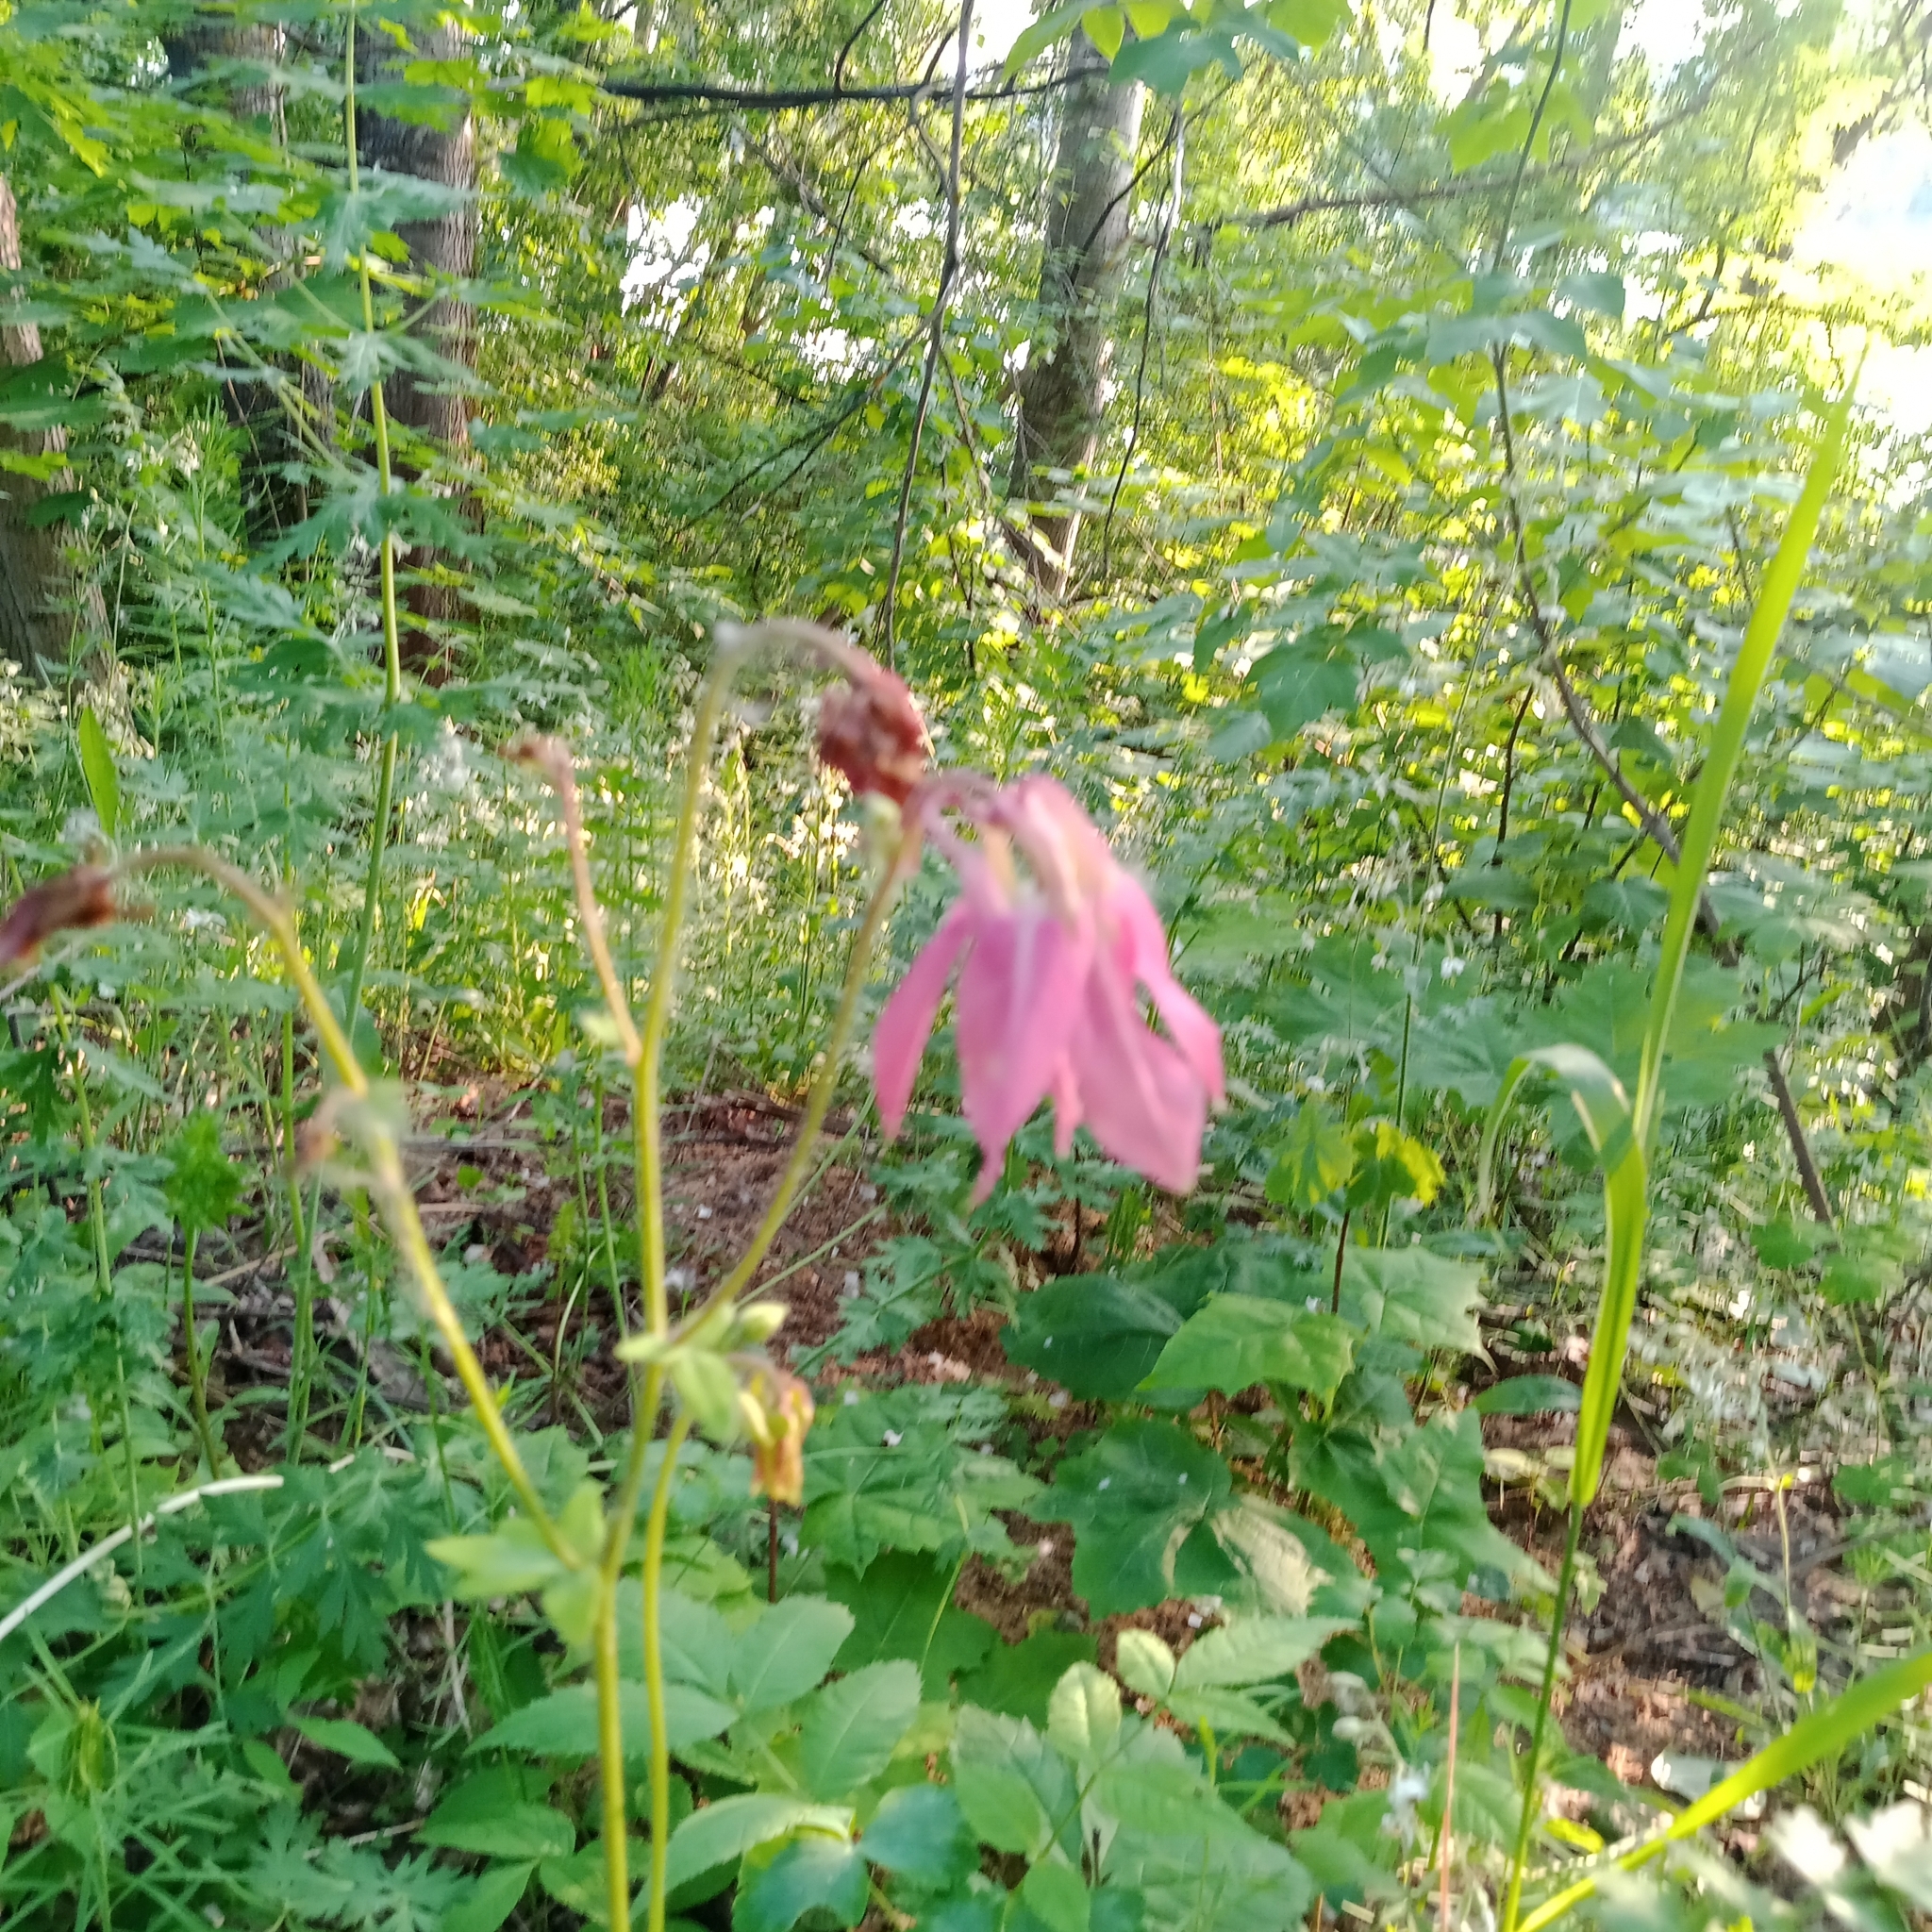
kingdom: Plantae
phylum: Tracheophyta
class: Magnoliopsida
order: Ranunculales
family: Ranunculaceae
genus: Aquilegia
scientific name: Aquilegia vulgaris
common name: Columbine
